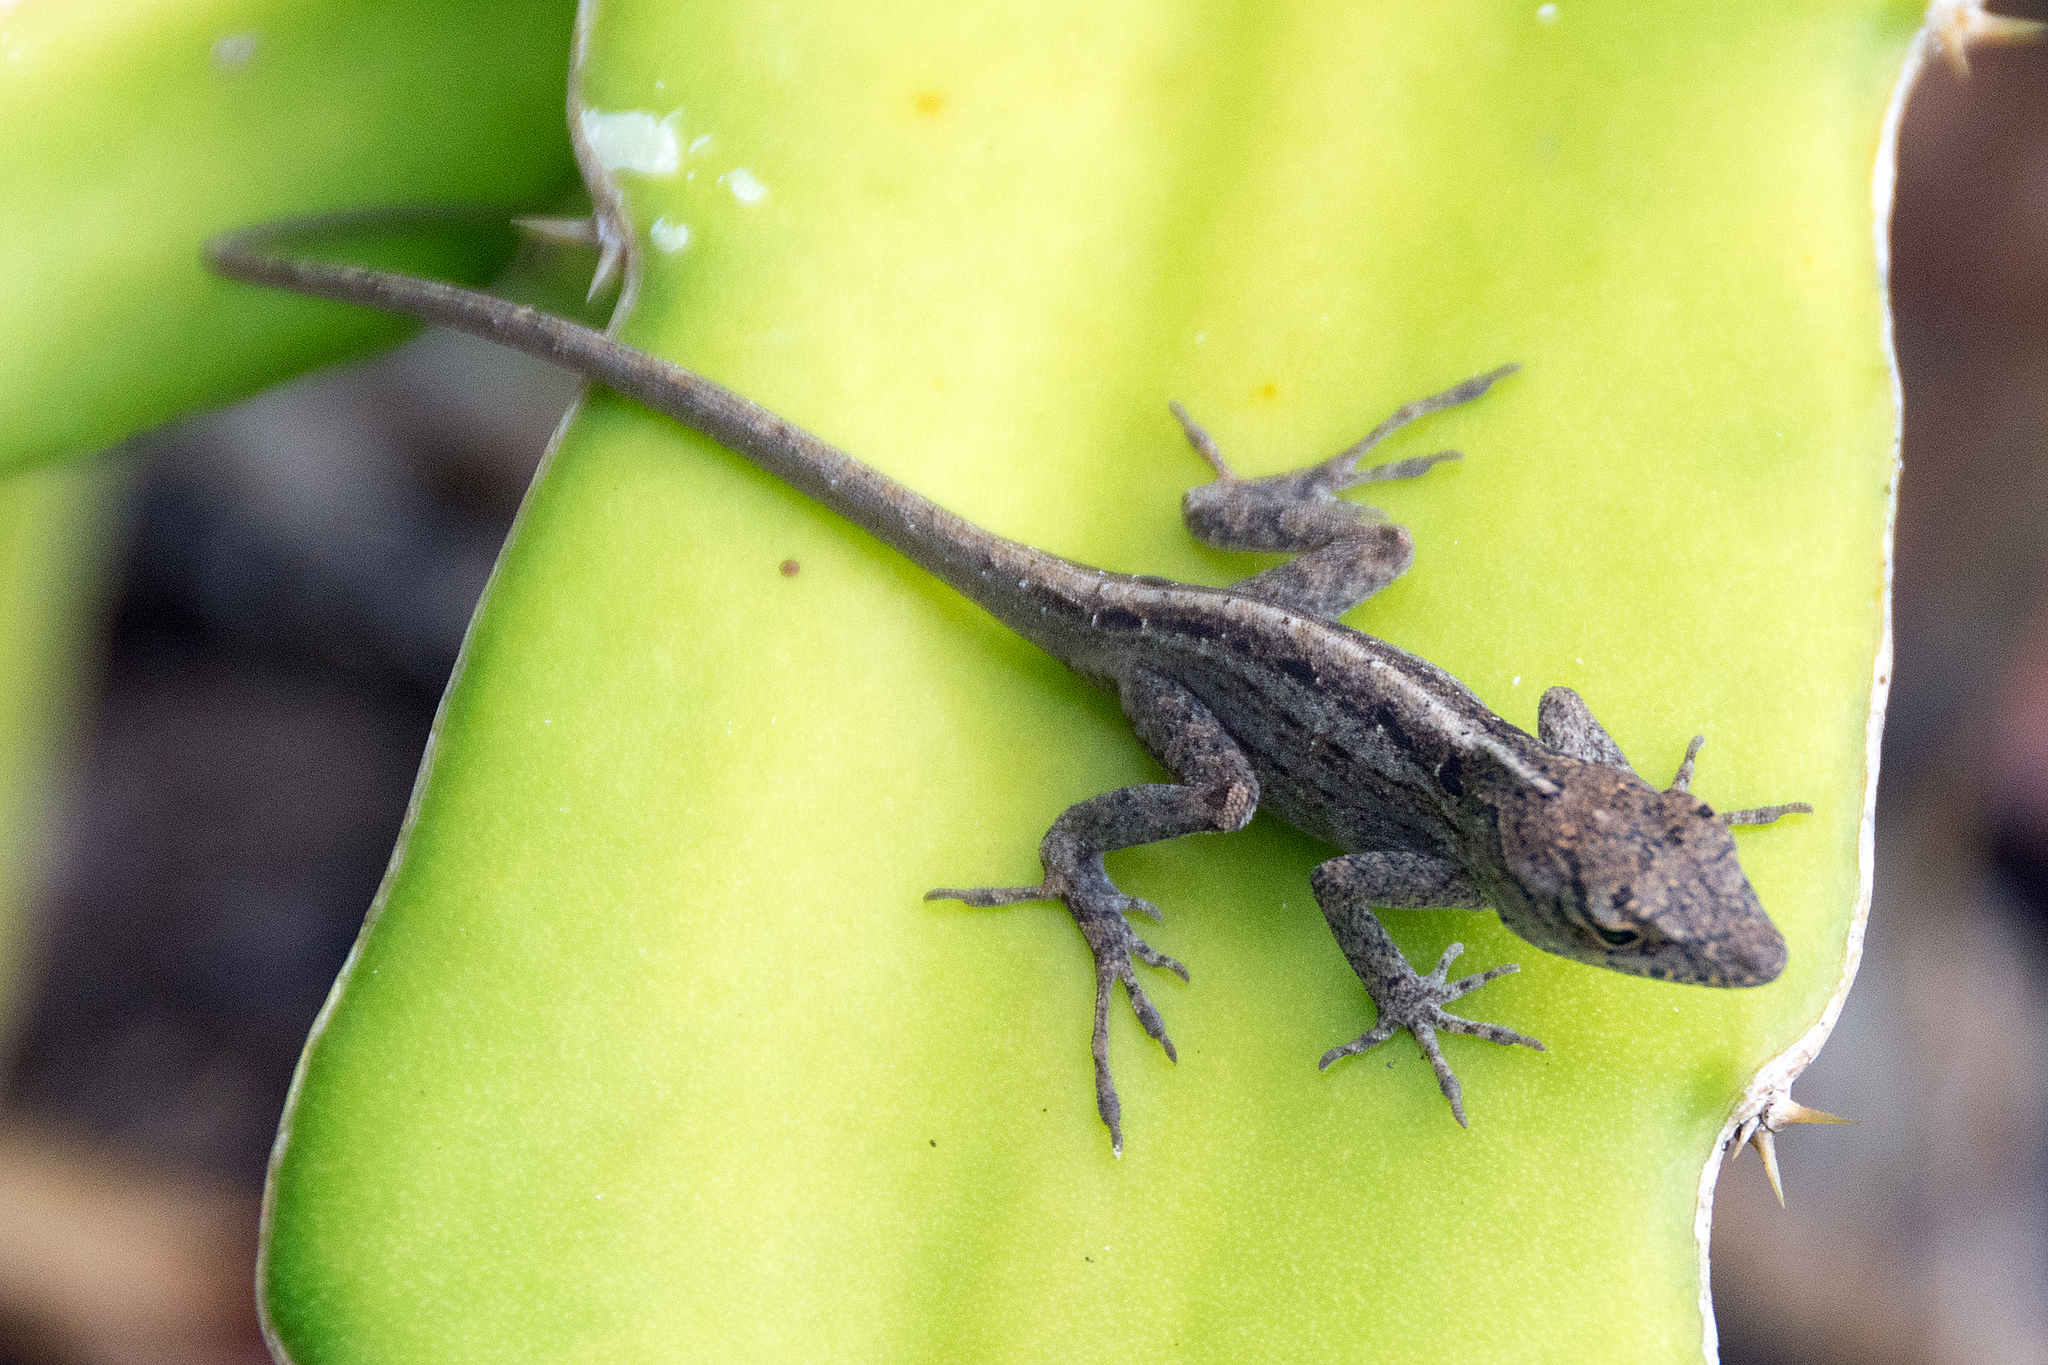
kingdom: Animalia
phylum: Chordata
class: Squamata
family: Dactyloidae
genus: Anolis
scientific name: Anolis sagrei
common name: Brown anole
